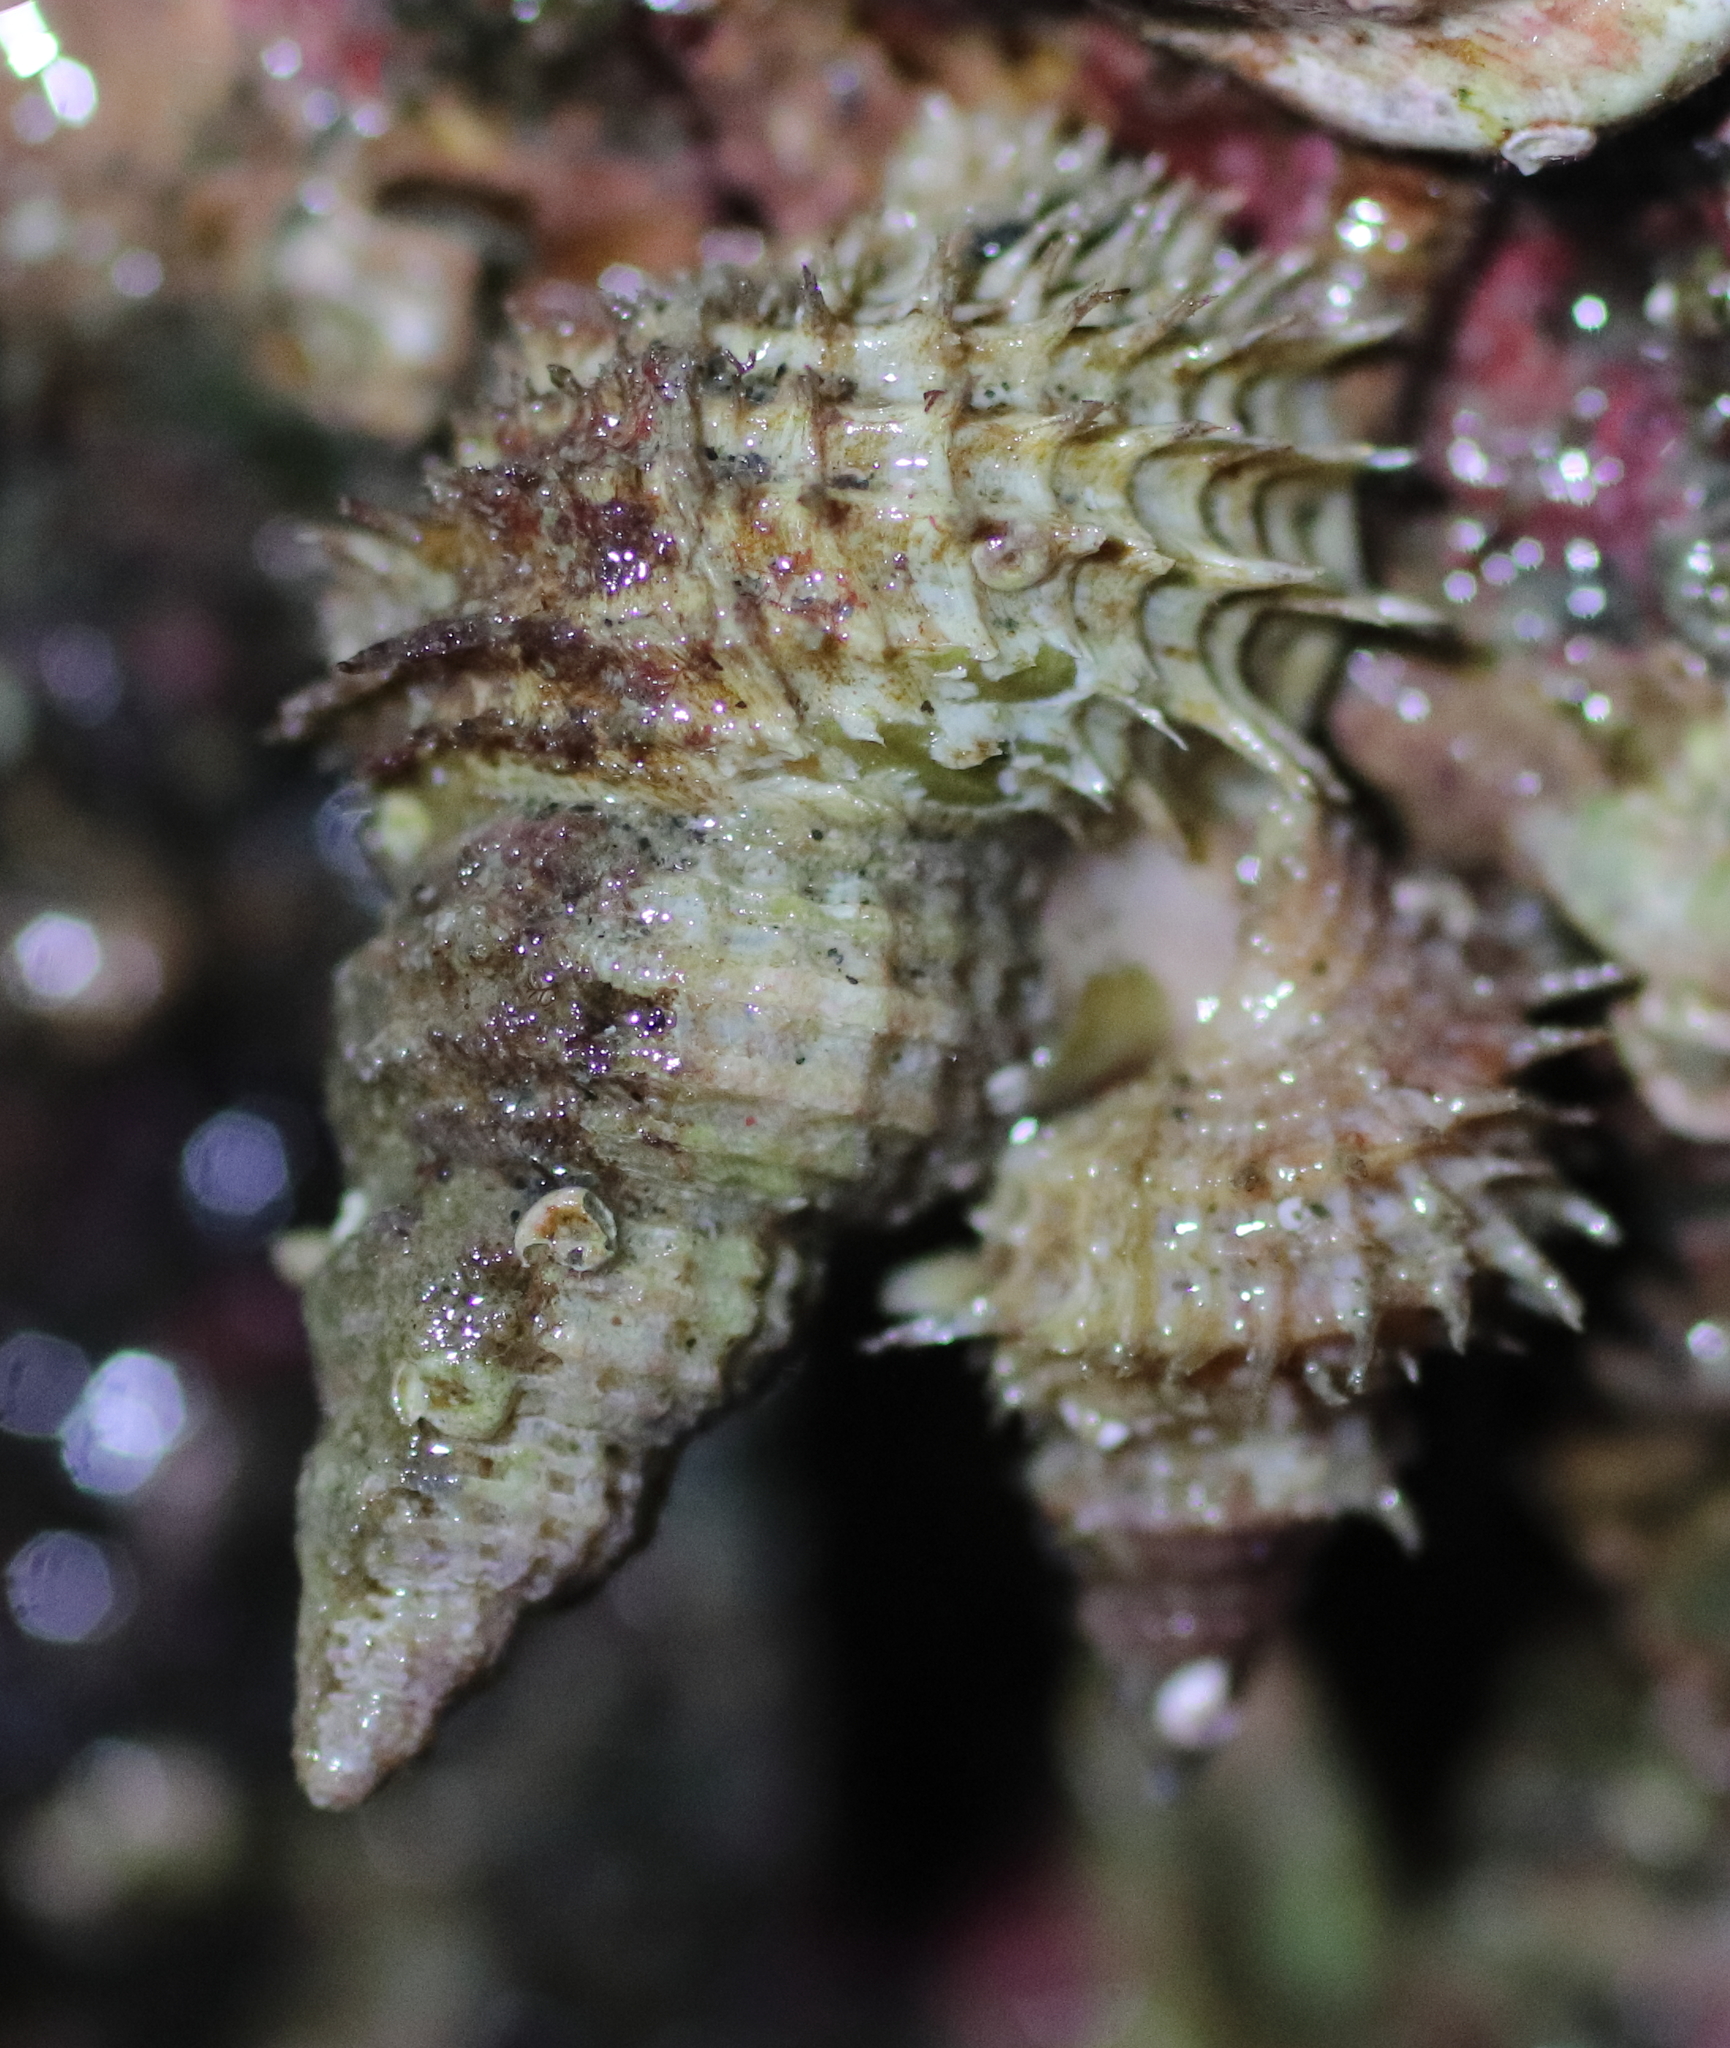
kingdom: Animalia
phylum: Mollusca
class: Gastropoda
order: Littorinimorpha
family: Capulidae
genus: Trichotropis
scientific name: Trichotropis cancellata
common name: Cancellate hairysnail
